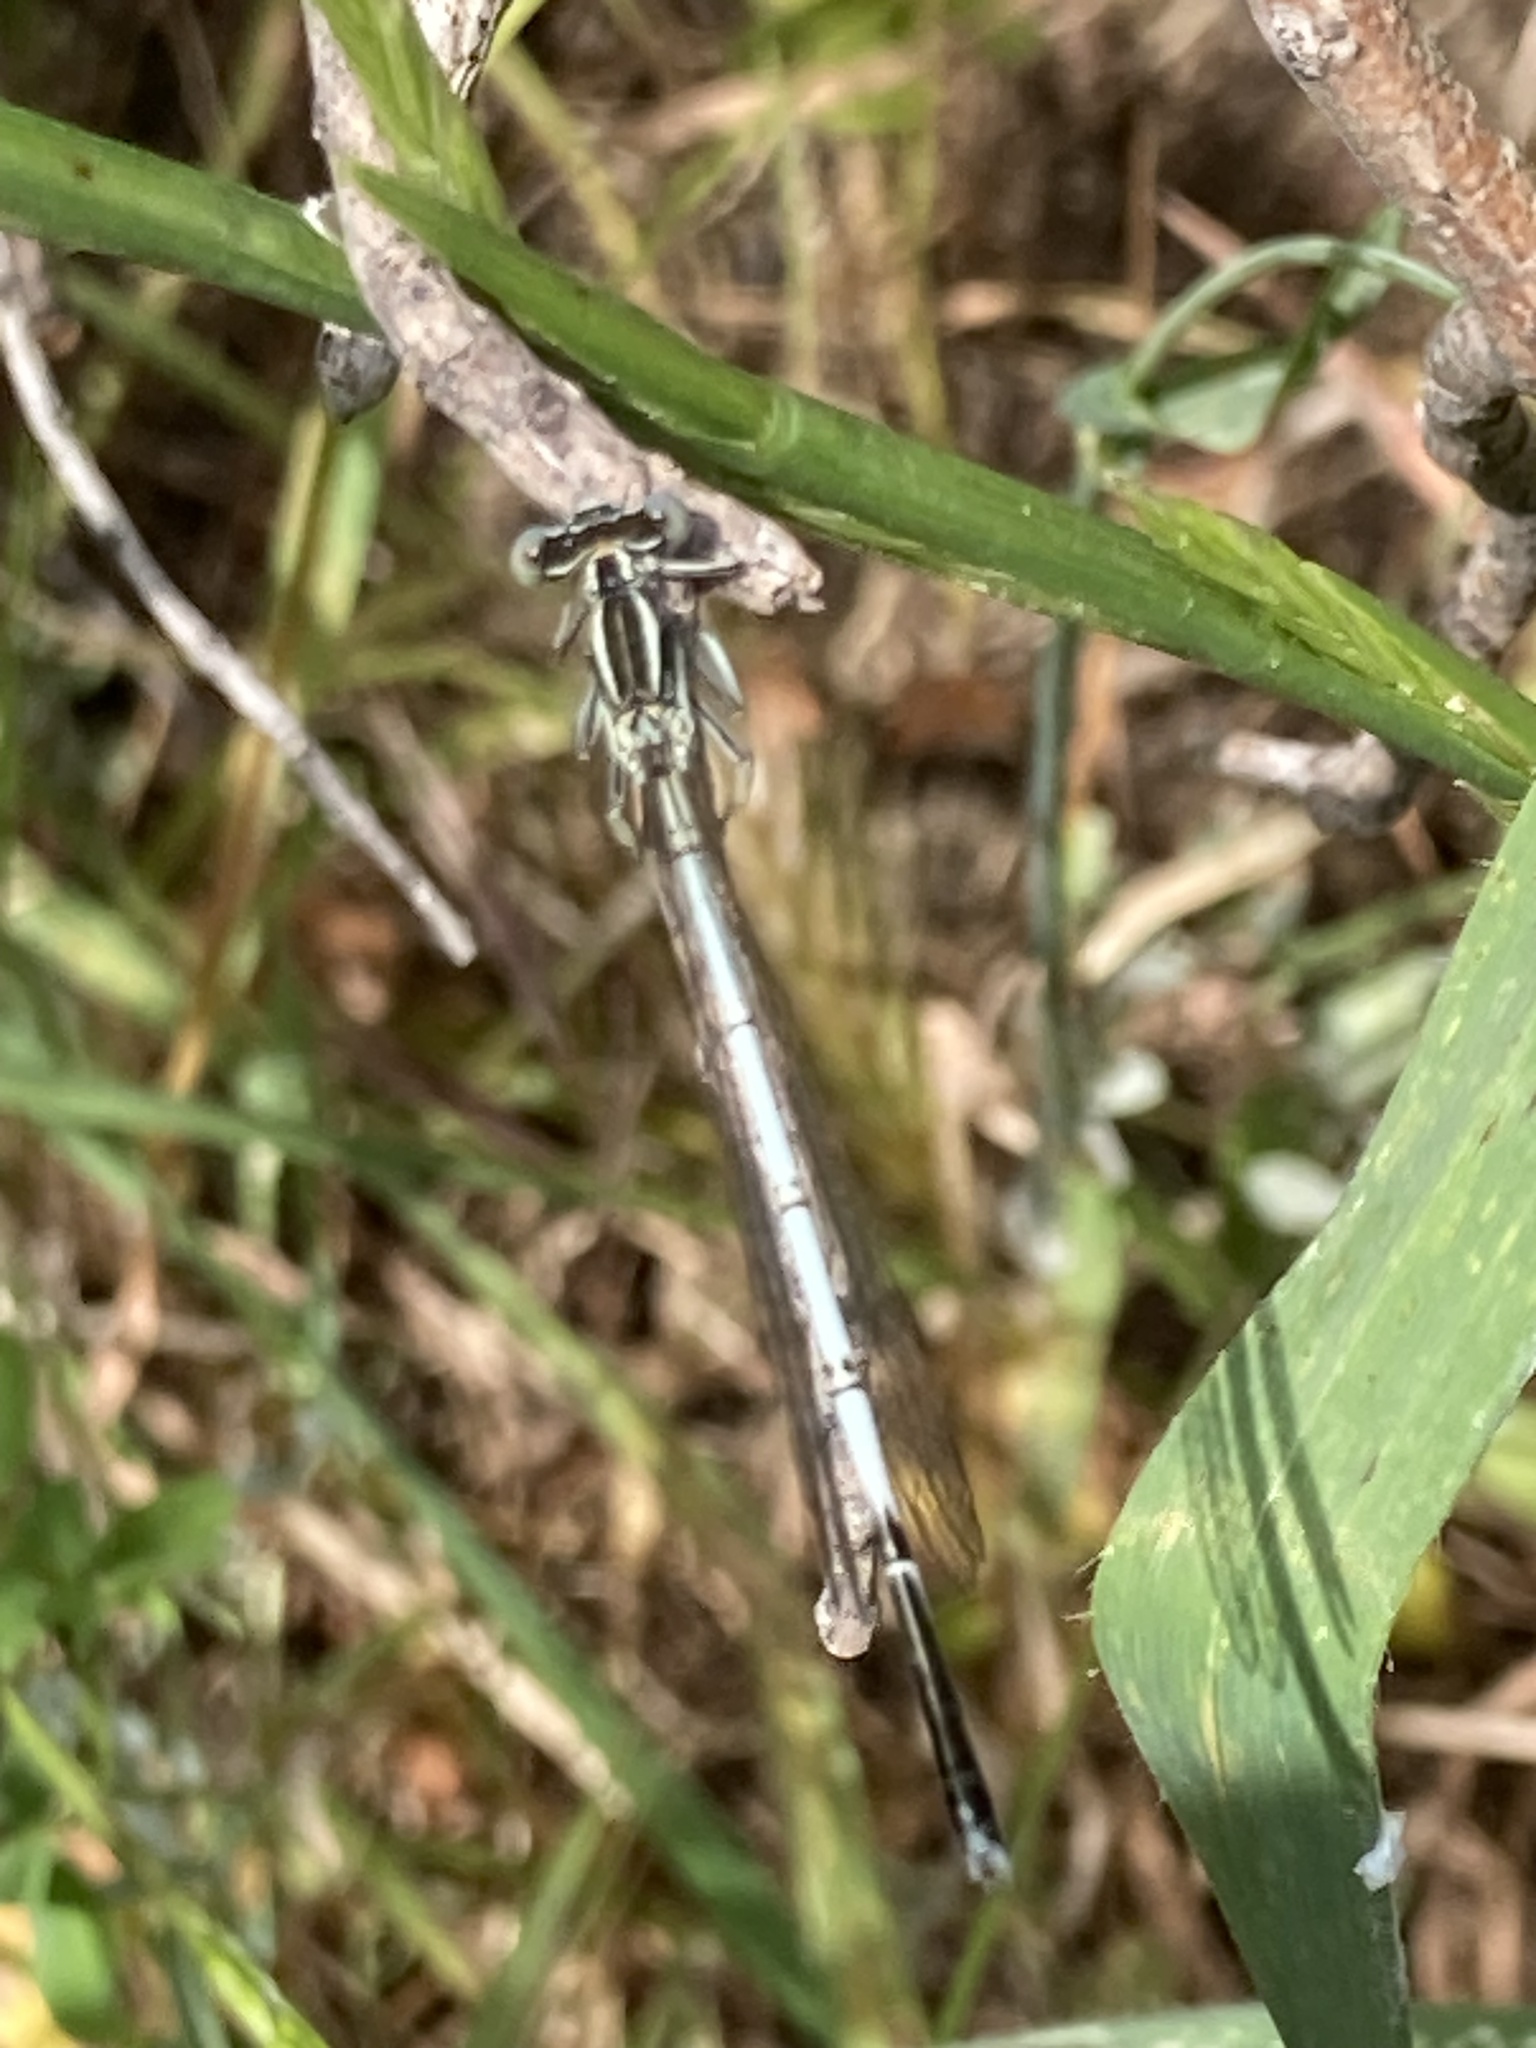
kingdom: Animalia
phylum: Arthropoda
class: Insecta
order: Odonata
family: Platycnemididae
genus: Platycnemis
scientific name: Platycnemis pennipes
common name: White-legged damselfly
